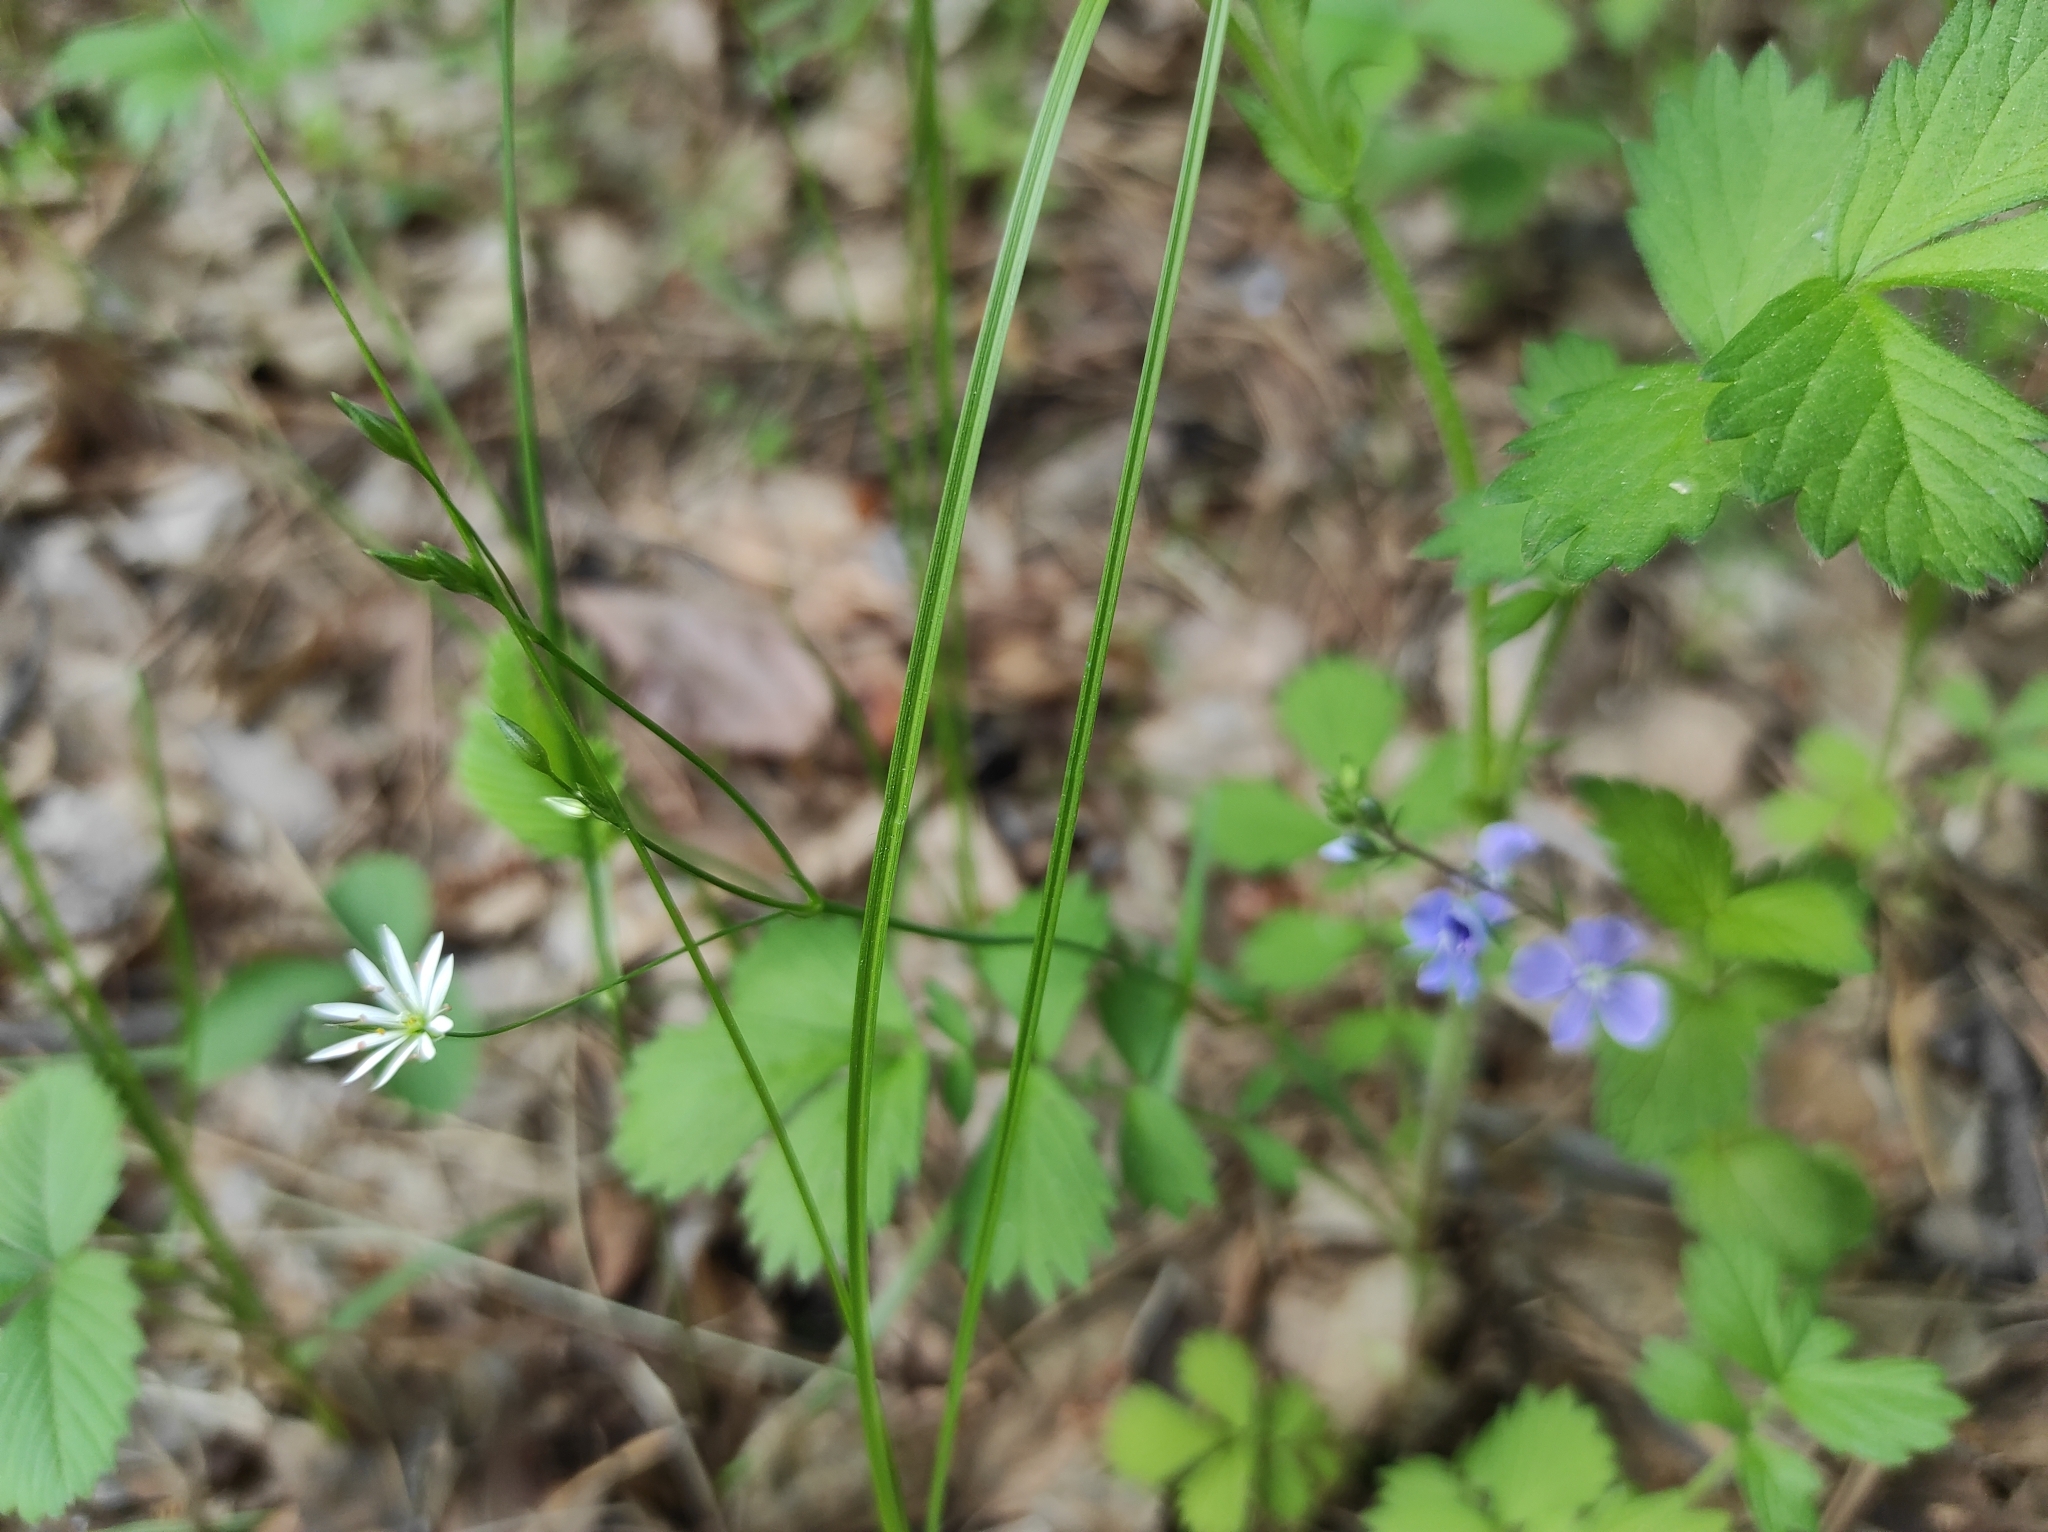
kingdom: Plantae
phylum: Tracheophyta
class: Magnoliopsida
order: Caryophyllales
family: Caryophyllaceae
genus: Stellaria
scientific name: Stellaria graminea
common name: Grass-like starwort
